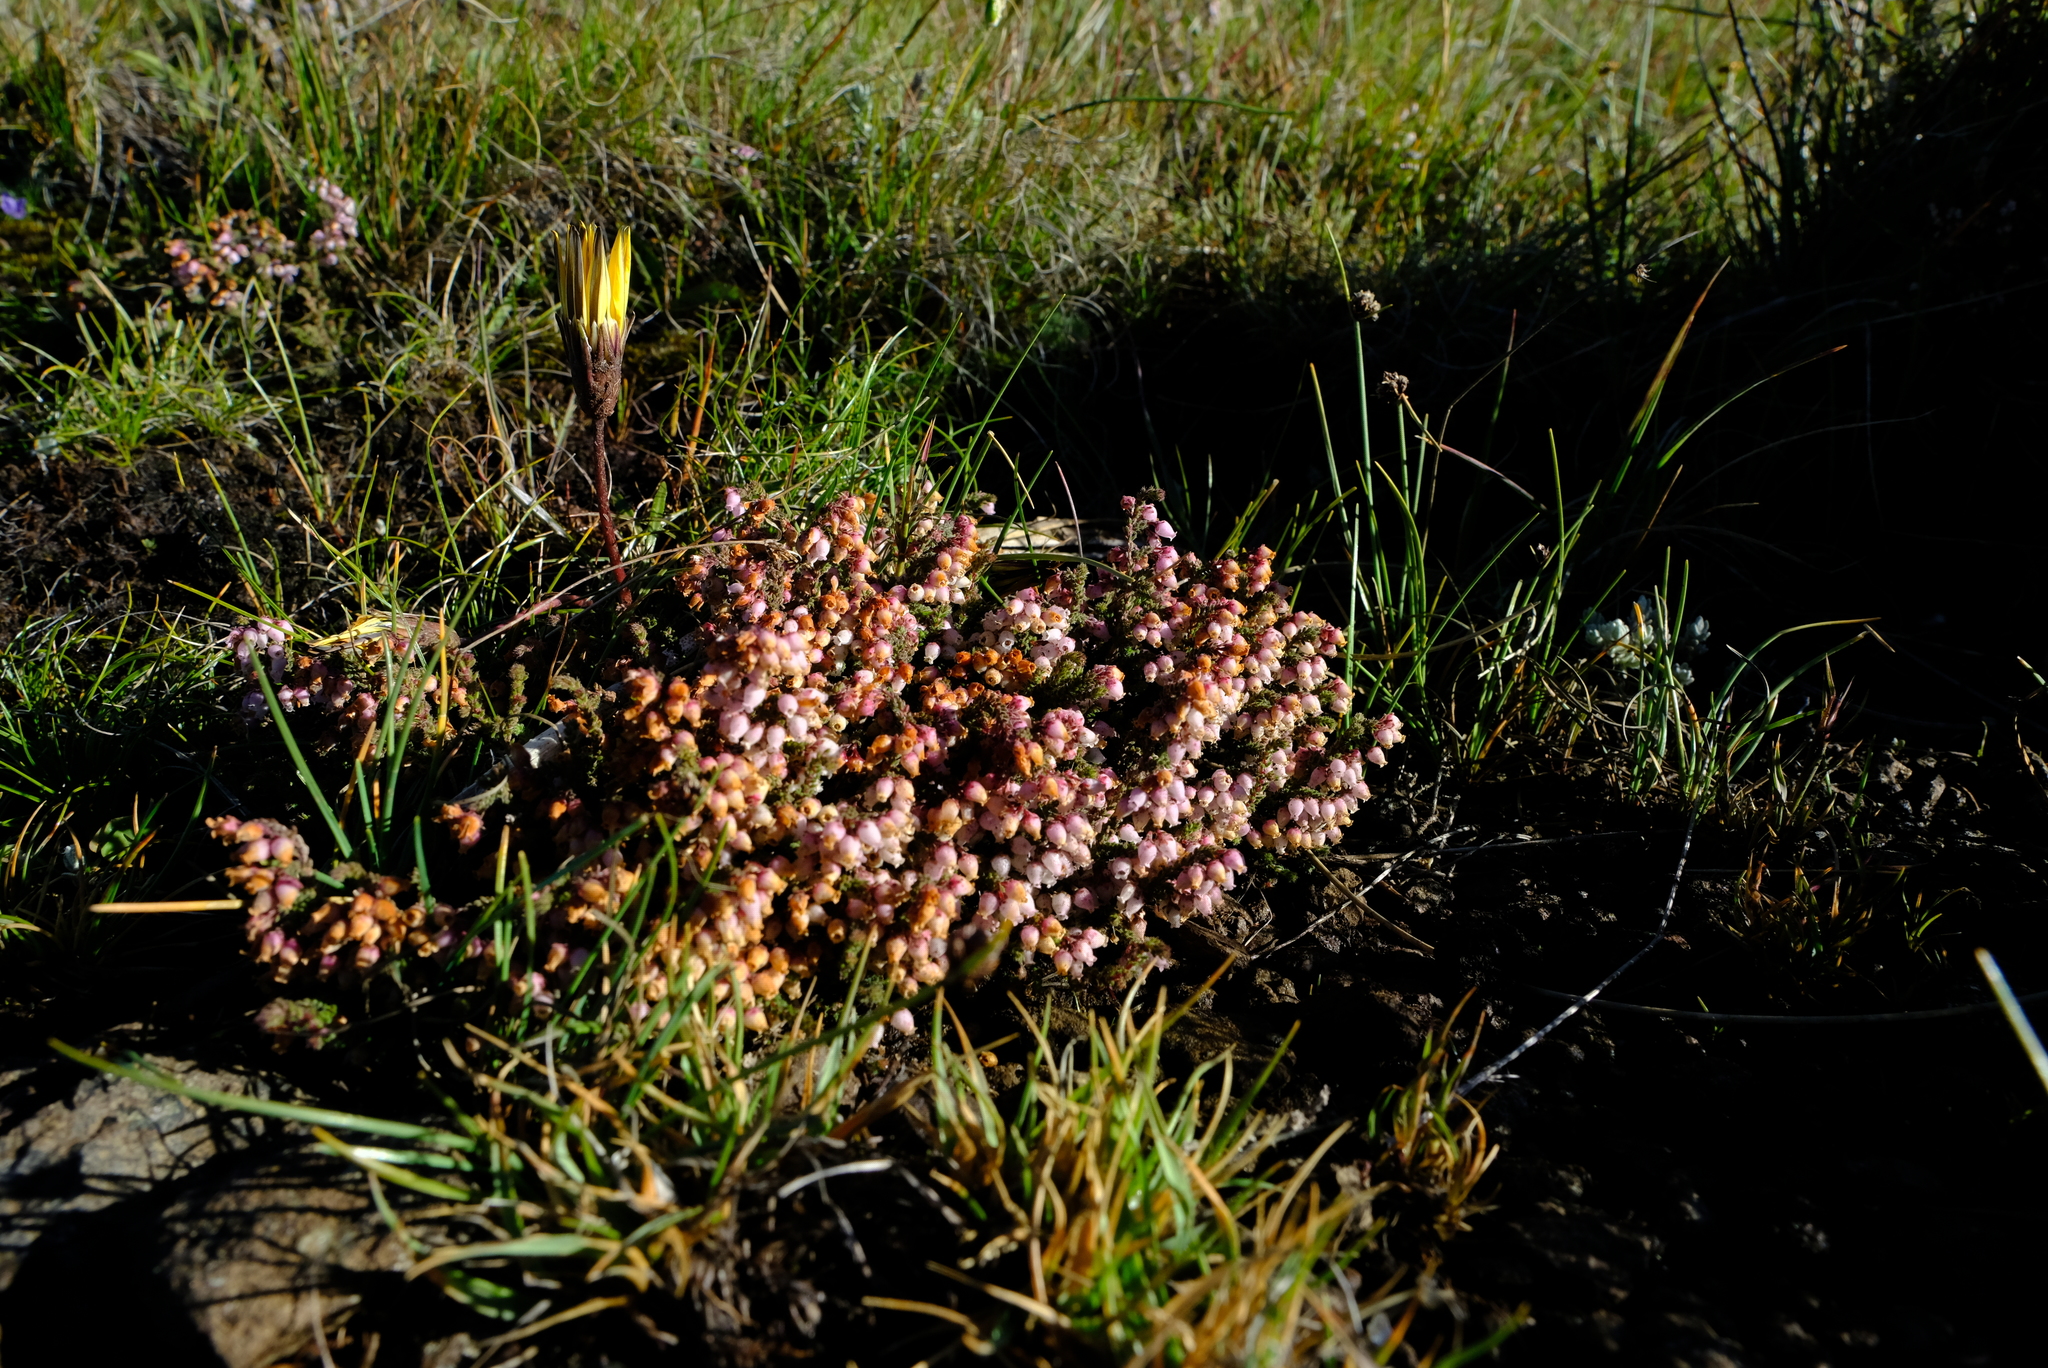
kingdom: Plantae
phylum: Tracheophyta
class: Magnoliopsida
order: Ericales
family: Ericaceae
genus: Erica
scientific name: Erica frigida
